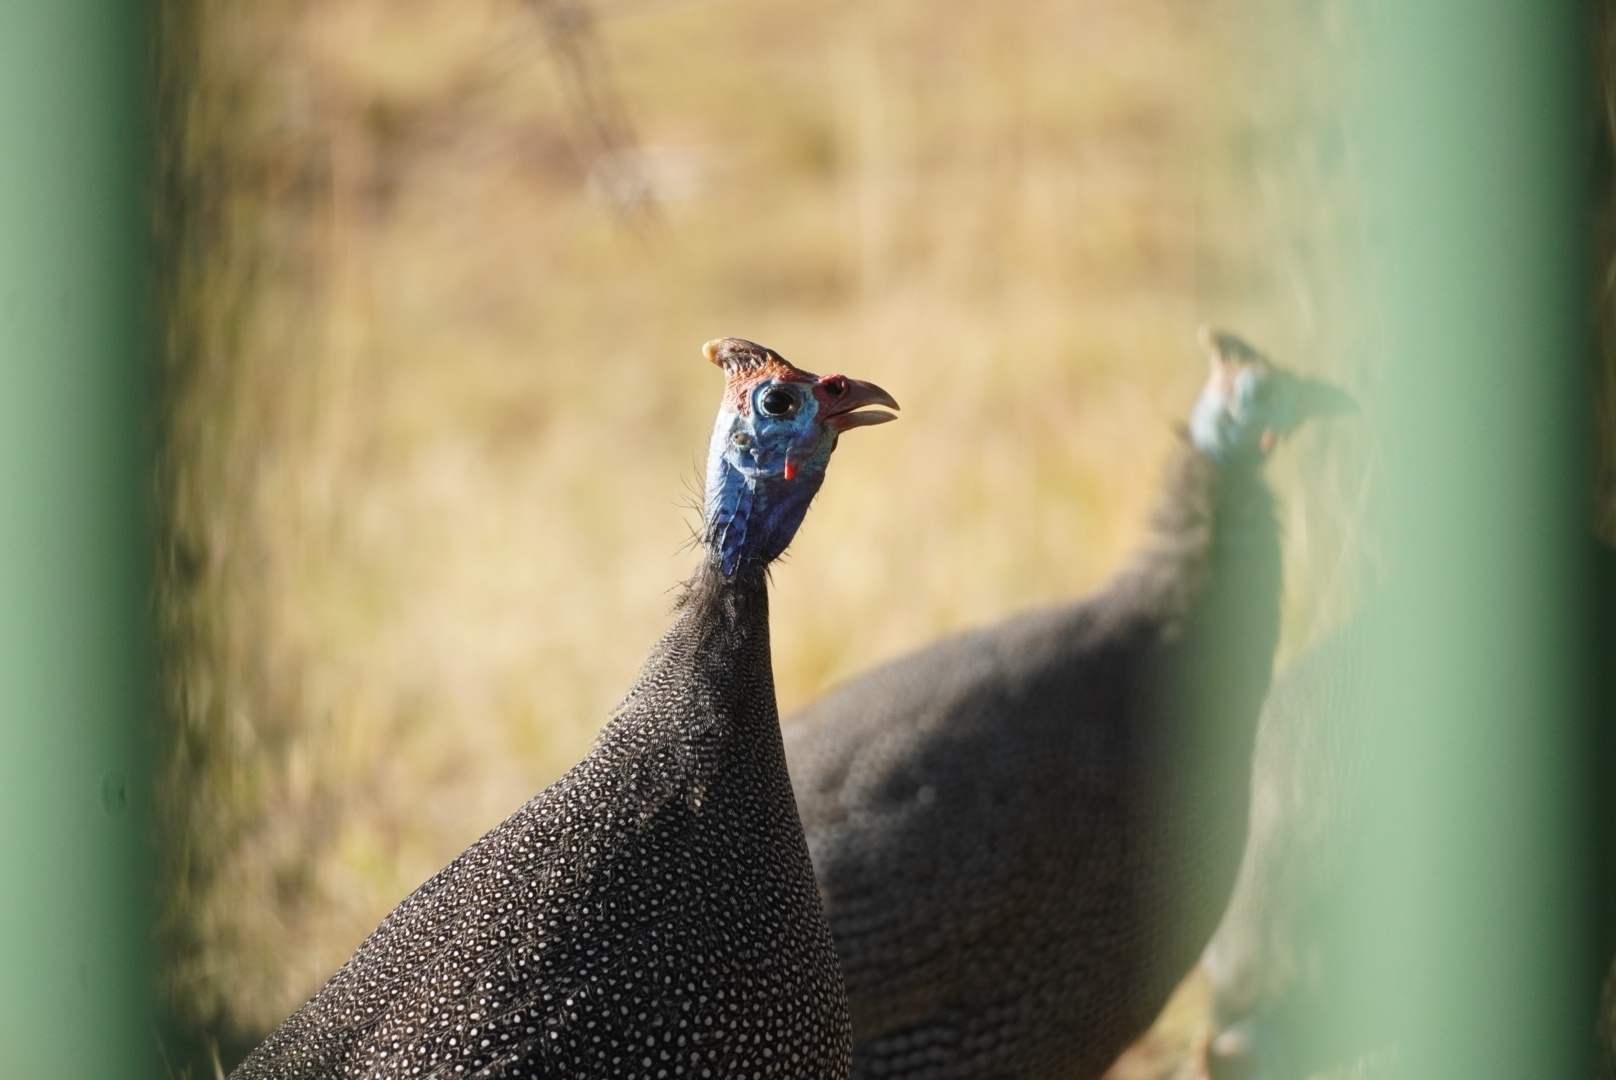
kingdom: Animalia
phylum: Chordata
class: Aves
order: Galliformes
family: Numididae
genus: Numida
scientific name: Numida meleagris
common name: Helmeted guineafowl
